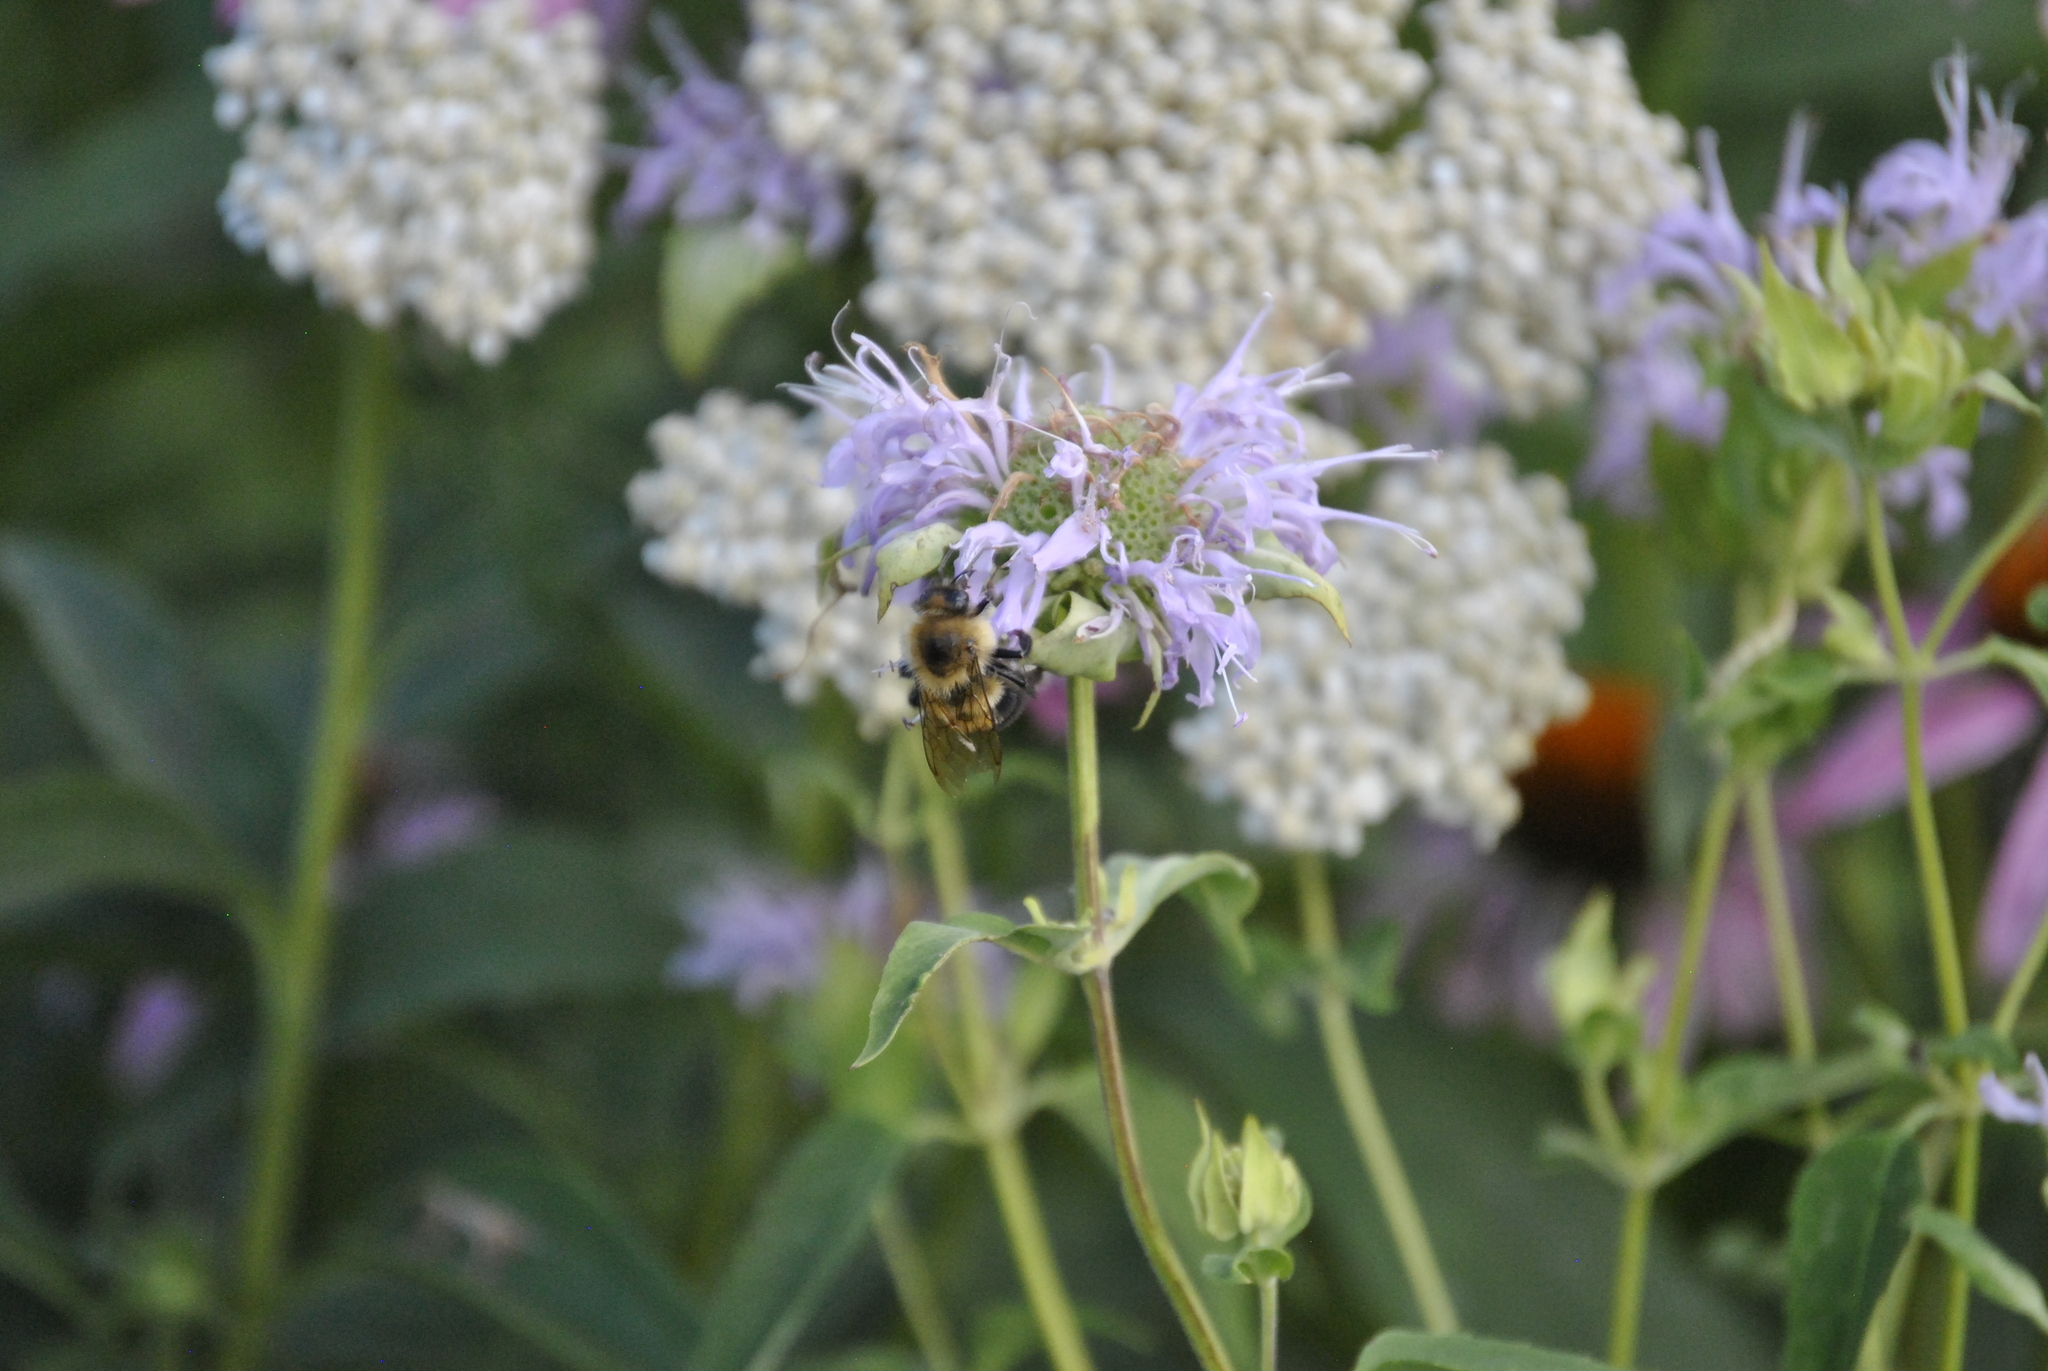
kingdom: Animalia
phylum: Arthropoda
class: Insecta
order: Hymenoptera
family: Apidae
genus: Bombus
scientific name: Bombus bimaculatus
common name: Two-spotted bumble bee
